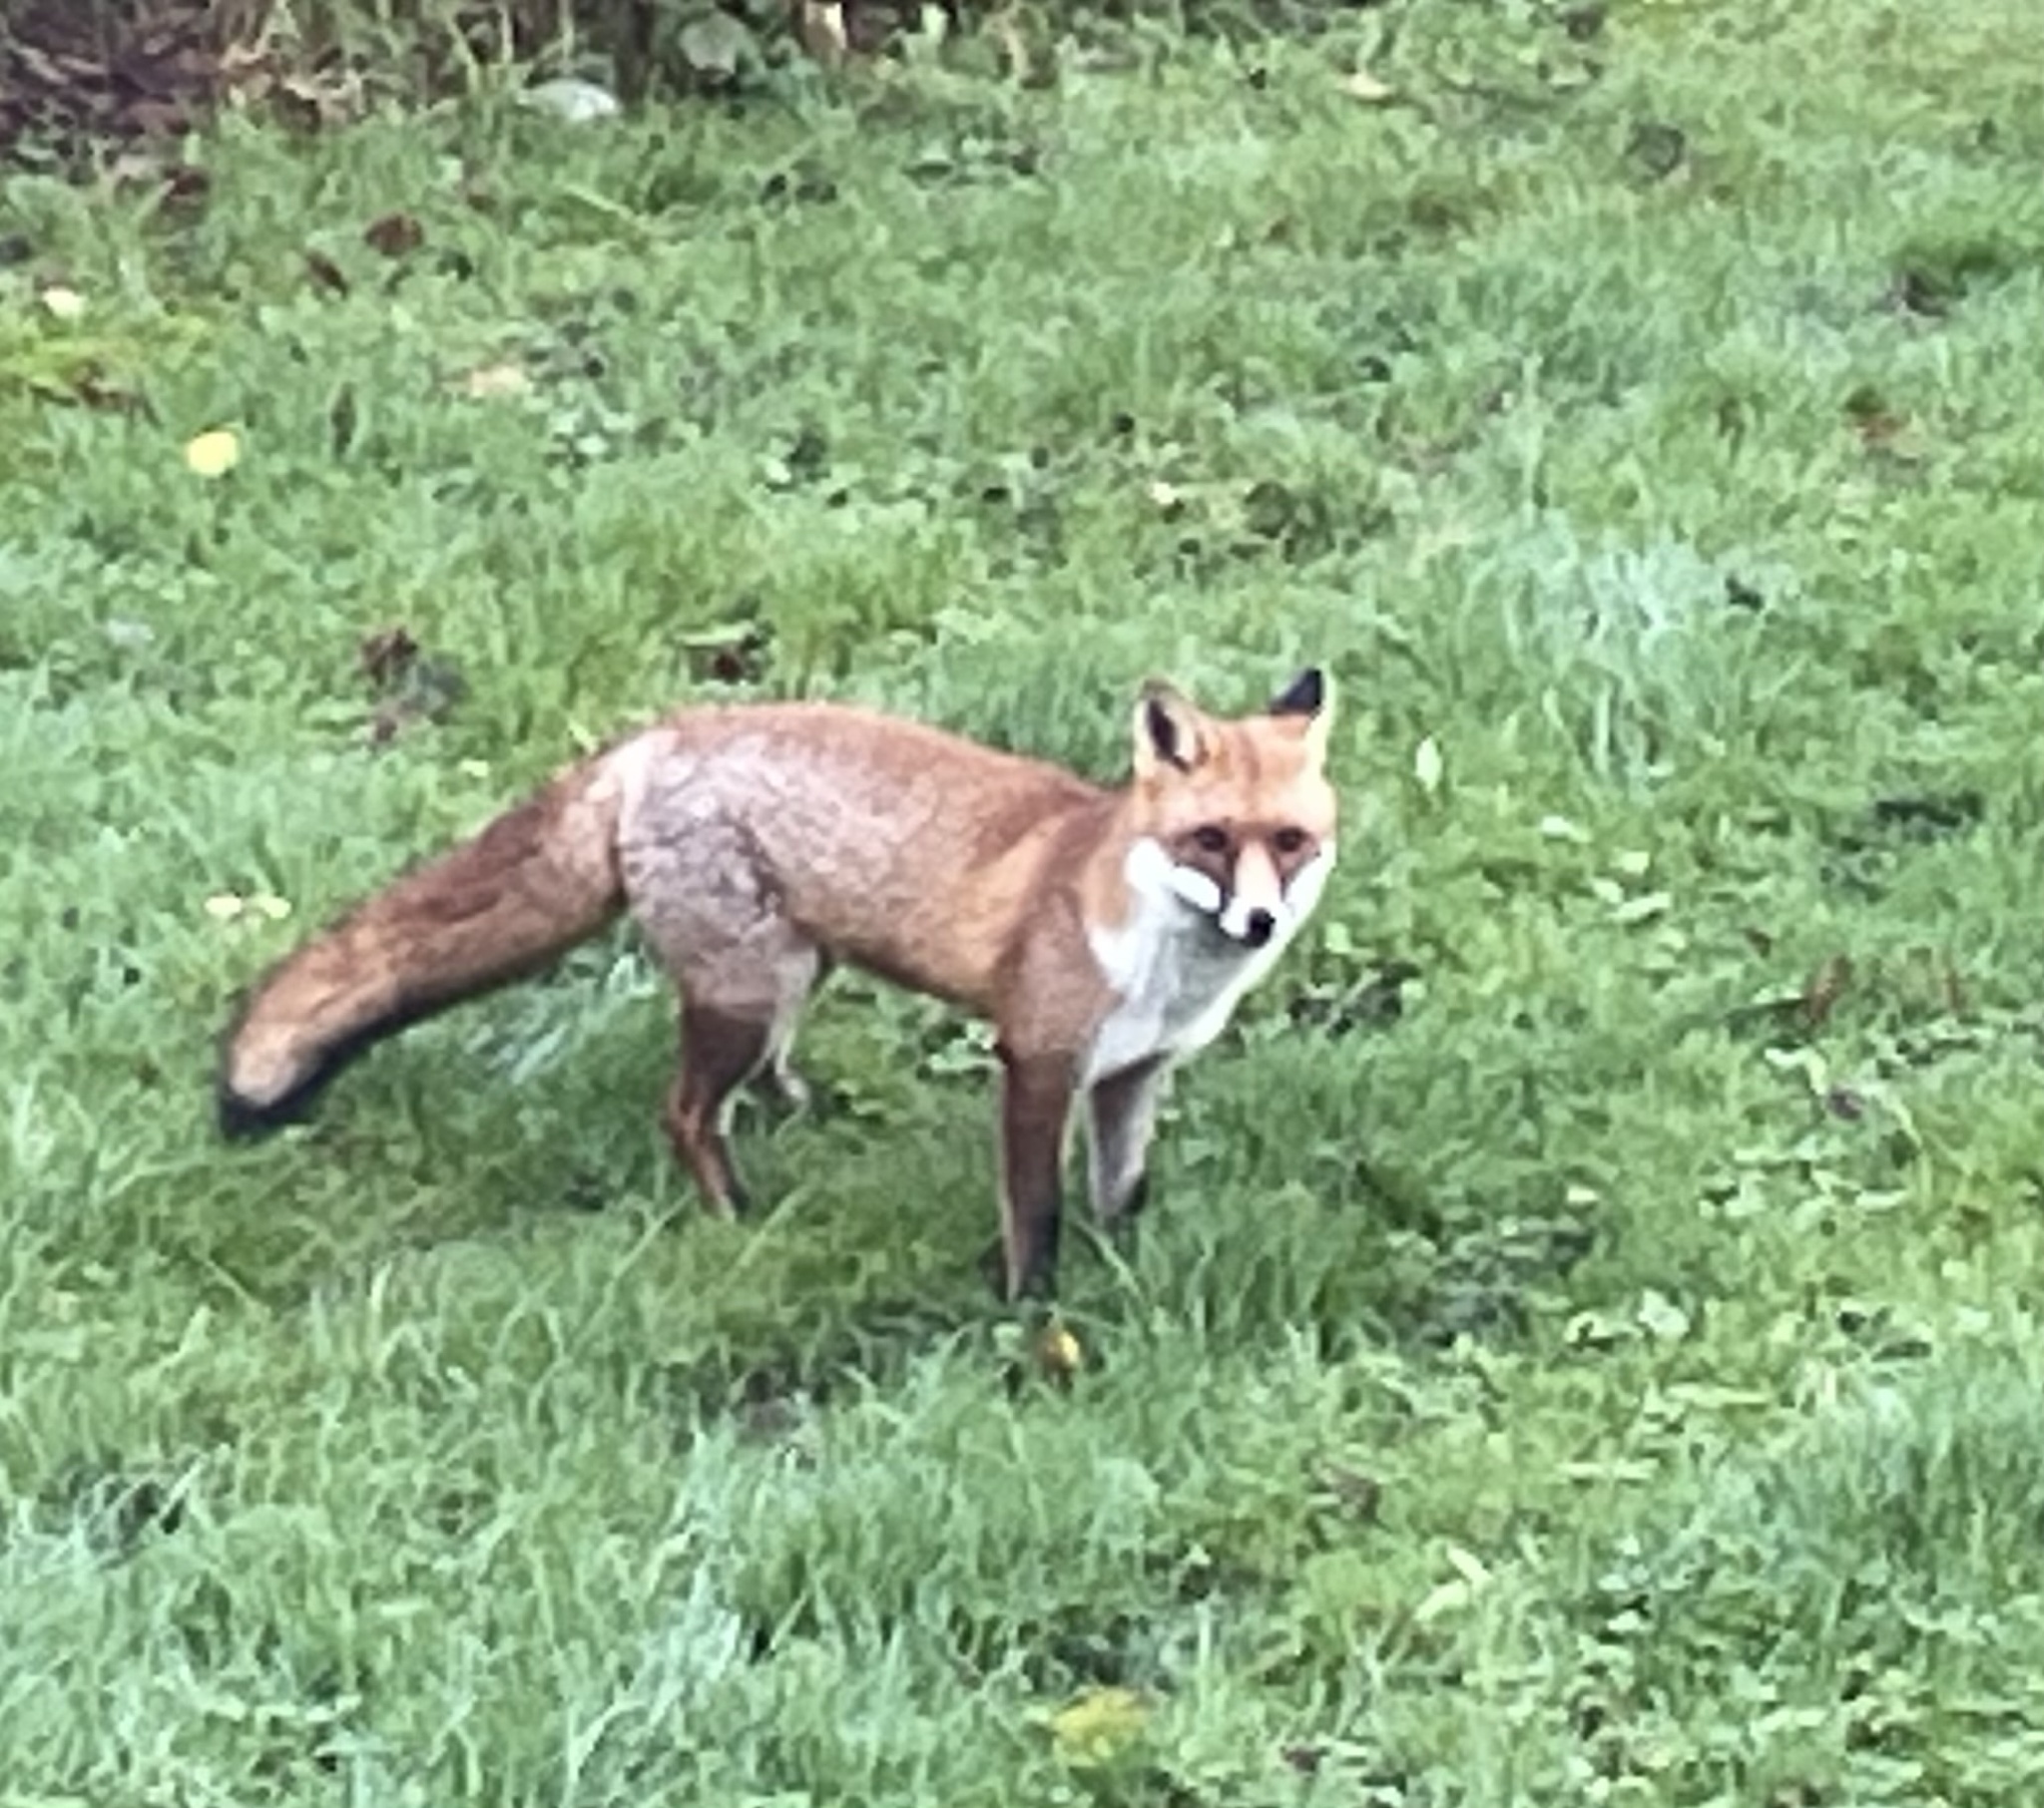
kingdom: Animalia
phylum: Chordata
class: Mammalia
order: Carnivora
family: Canidae
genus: Vulpes
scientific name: Vulpes vulpes
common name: Red fox
